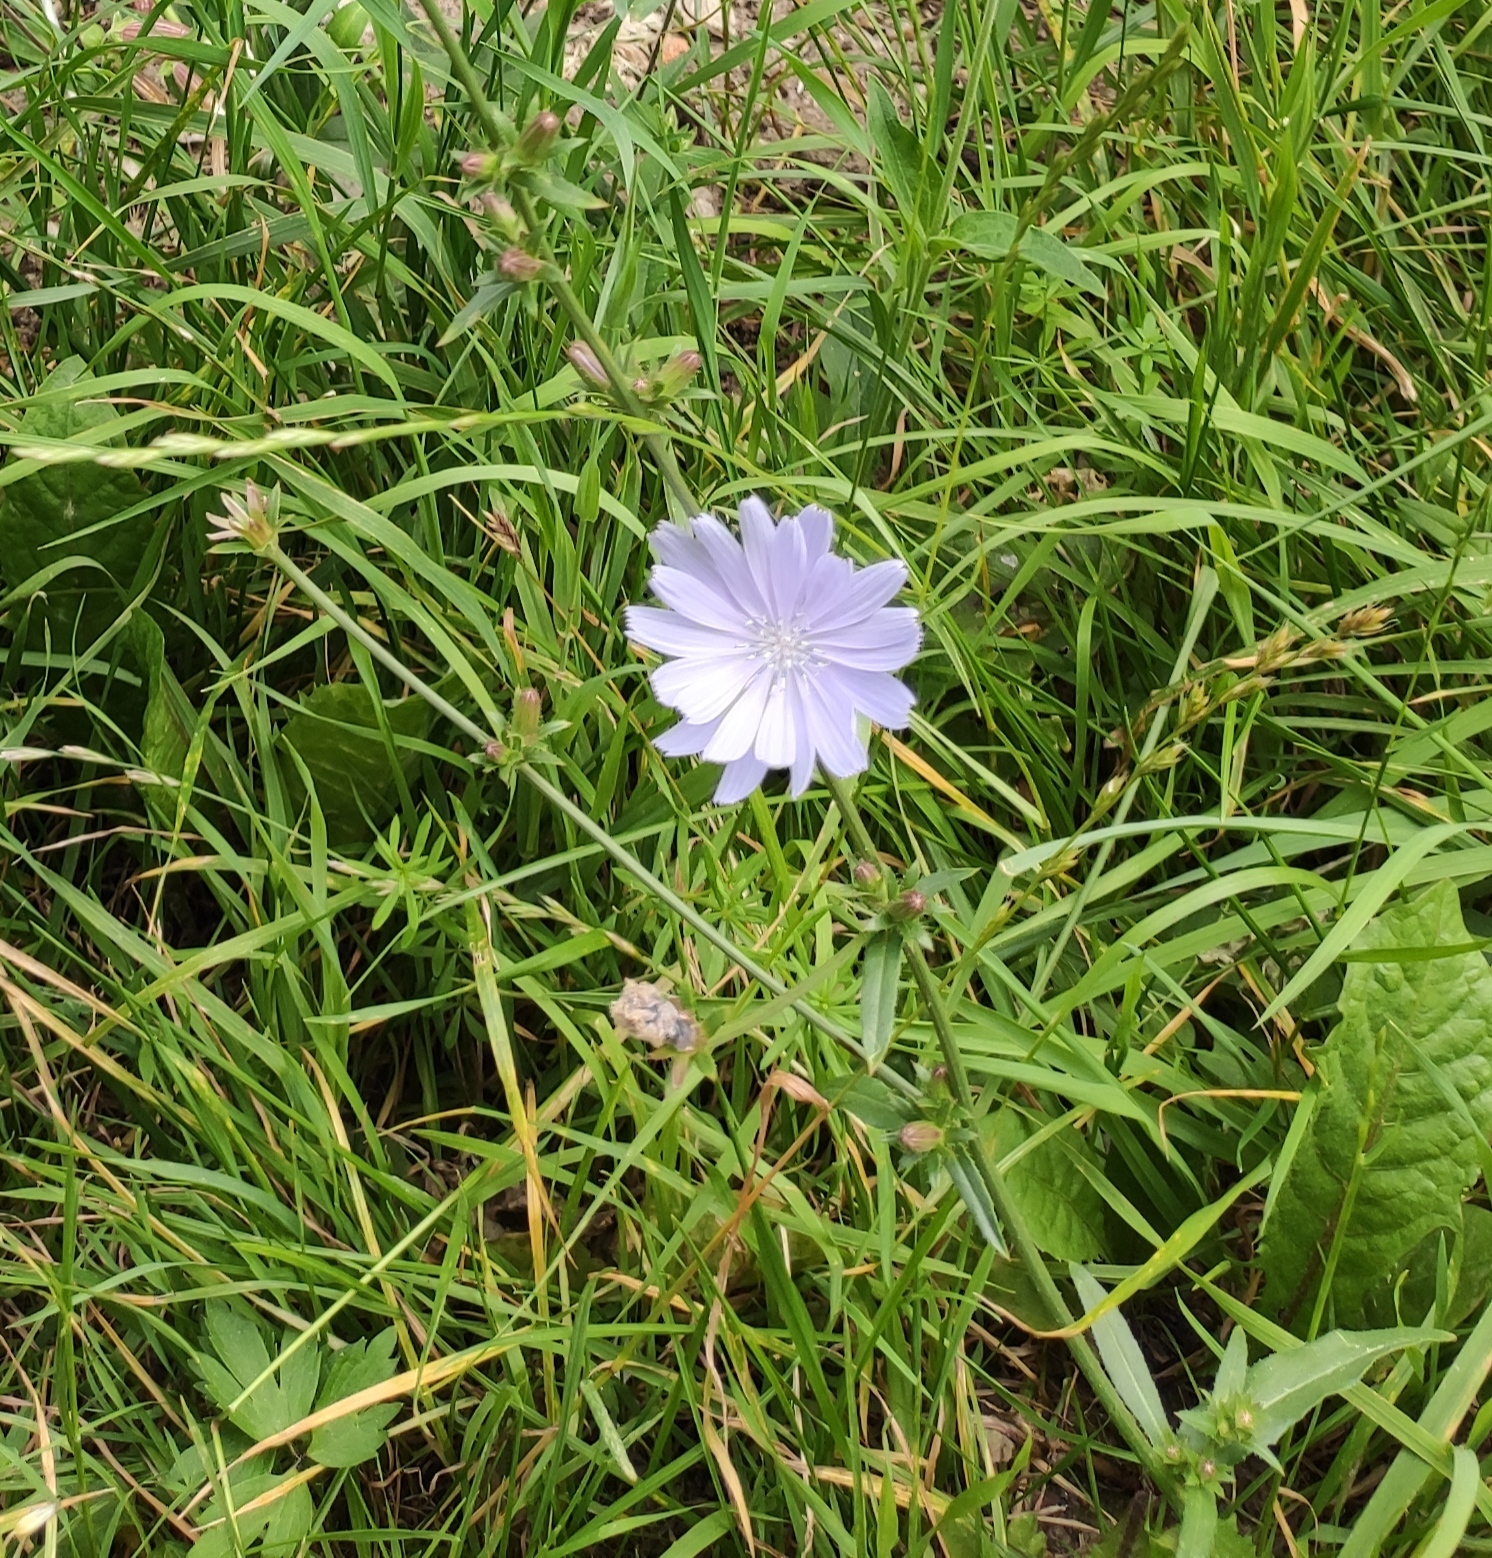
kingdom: Plantae
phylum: Tracheophyta
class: Magnoliopsida
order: Asterales
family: Asteraceae
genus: Cichorium
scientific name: Cichorium intybus
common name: Chicory
